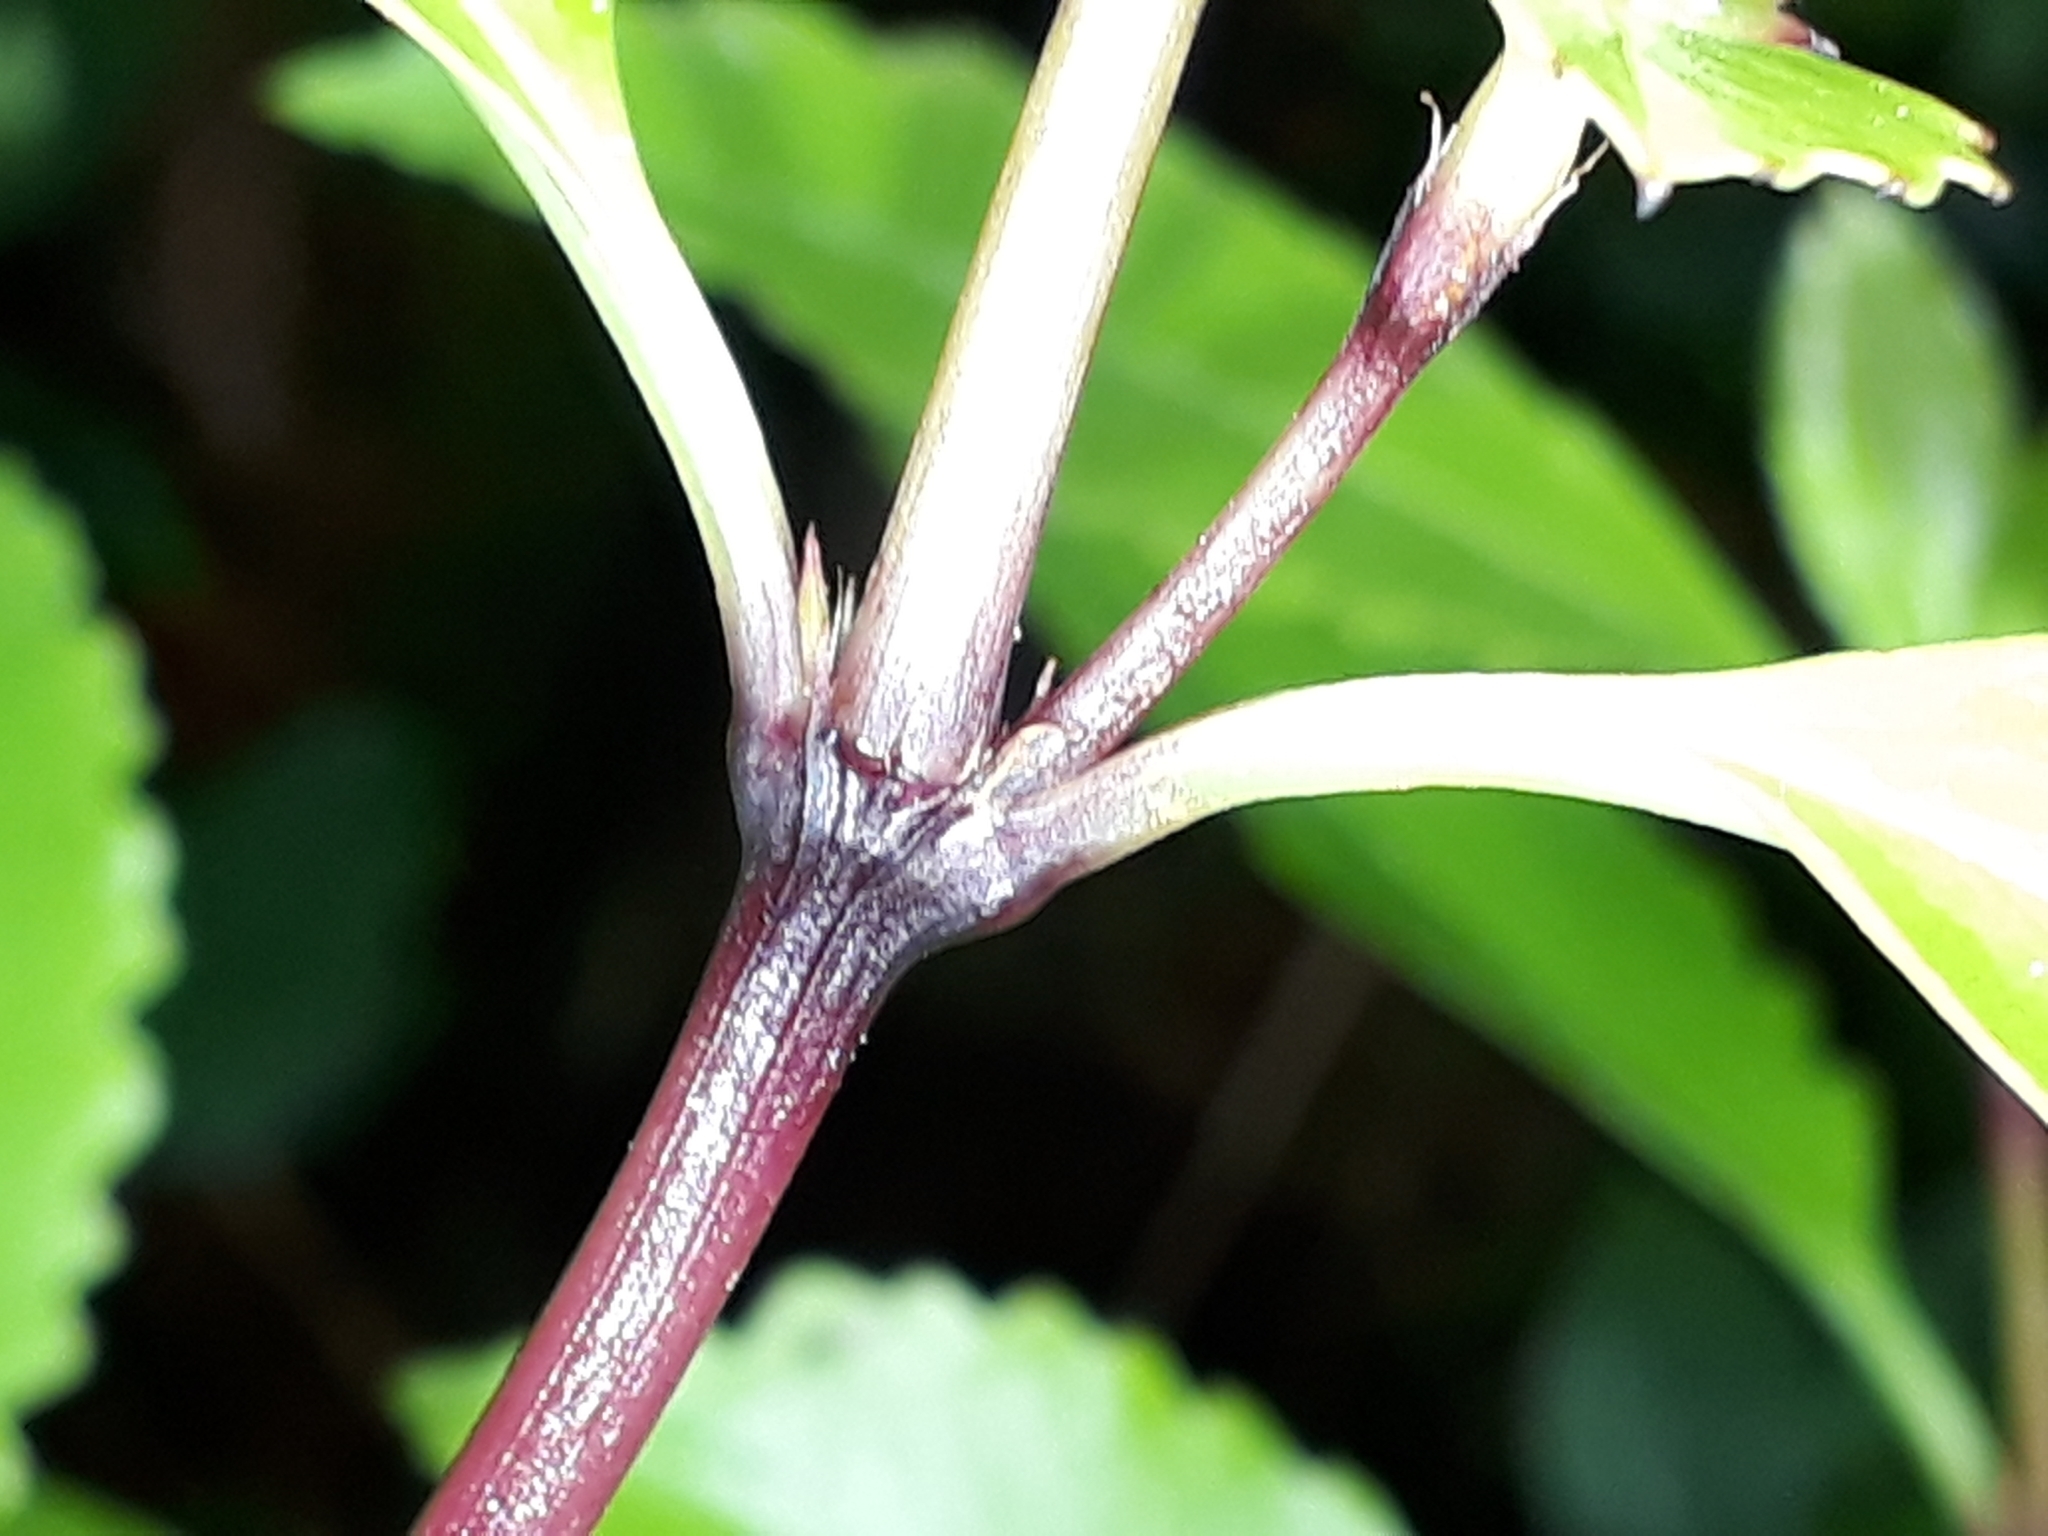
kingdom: Plantae
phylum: Tracheophyta
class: Magnoliopsida
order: Chloranthales
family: Chloranthaceae
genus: Ascarina
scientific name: Ascarina lucida
